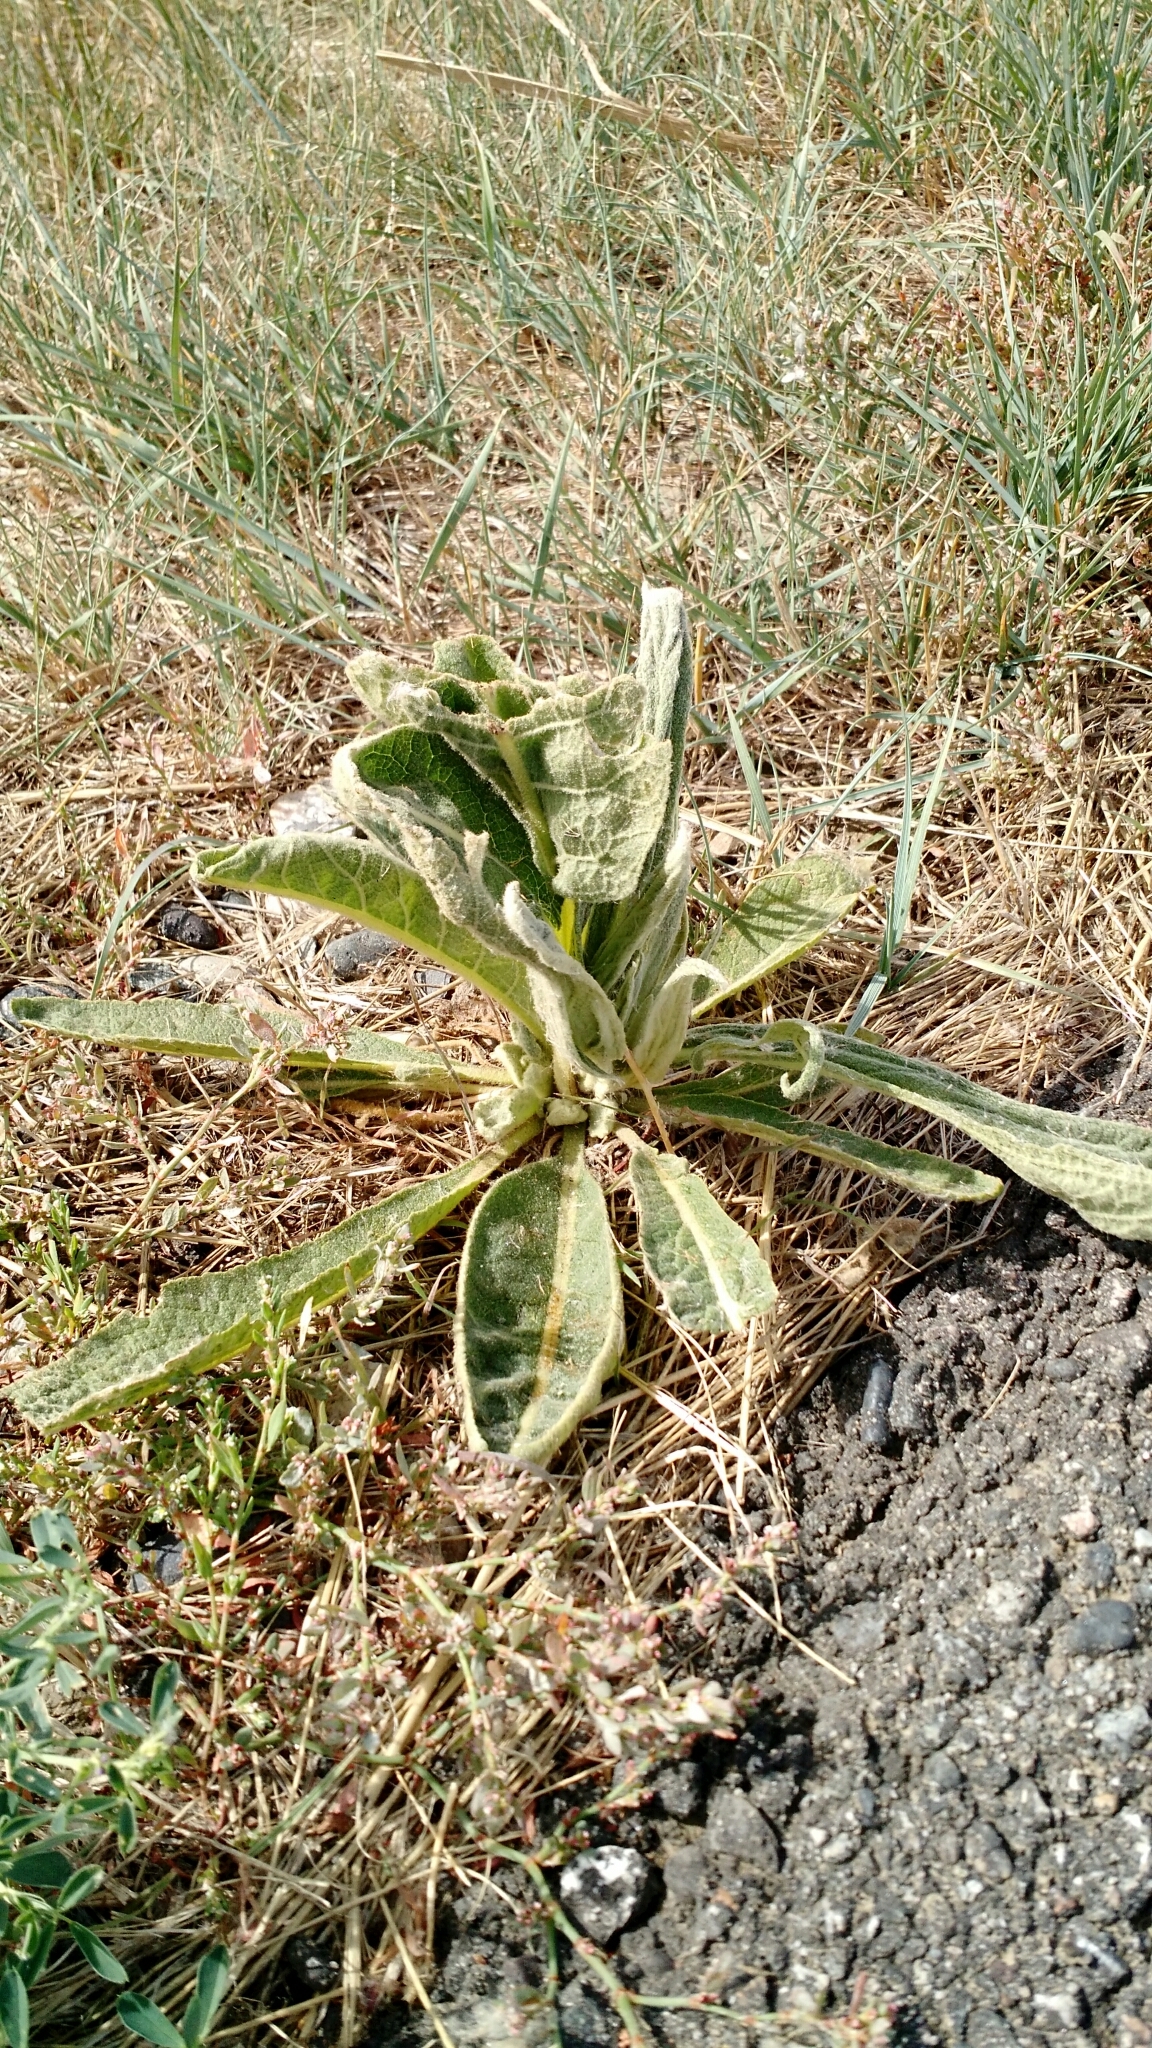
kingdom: Plantae
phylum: Tracheophyta
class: Magnoliopsida
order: Lamiales
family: Scrophulariaceae
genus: Verbascum
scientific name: Verbascum thapsus
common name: Common mullein
